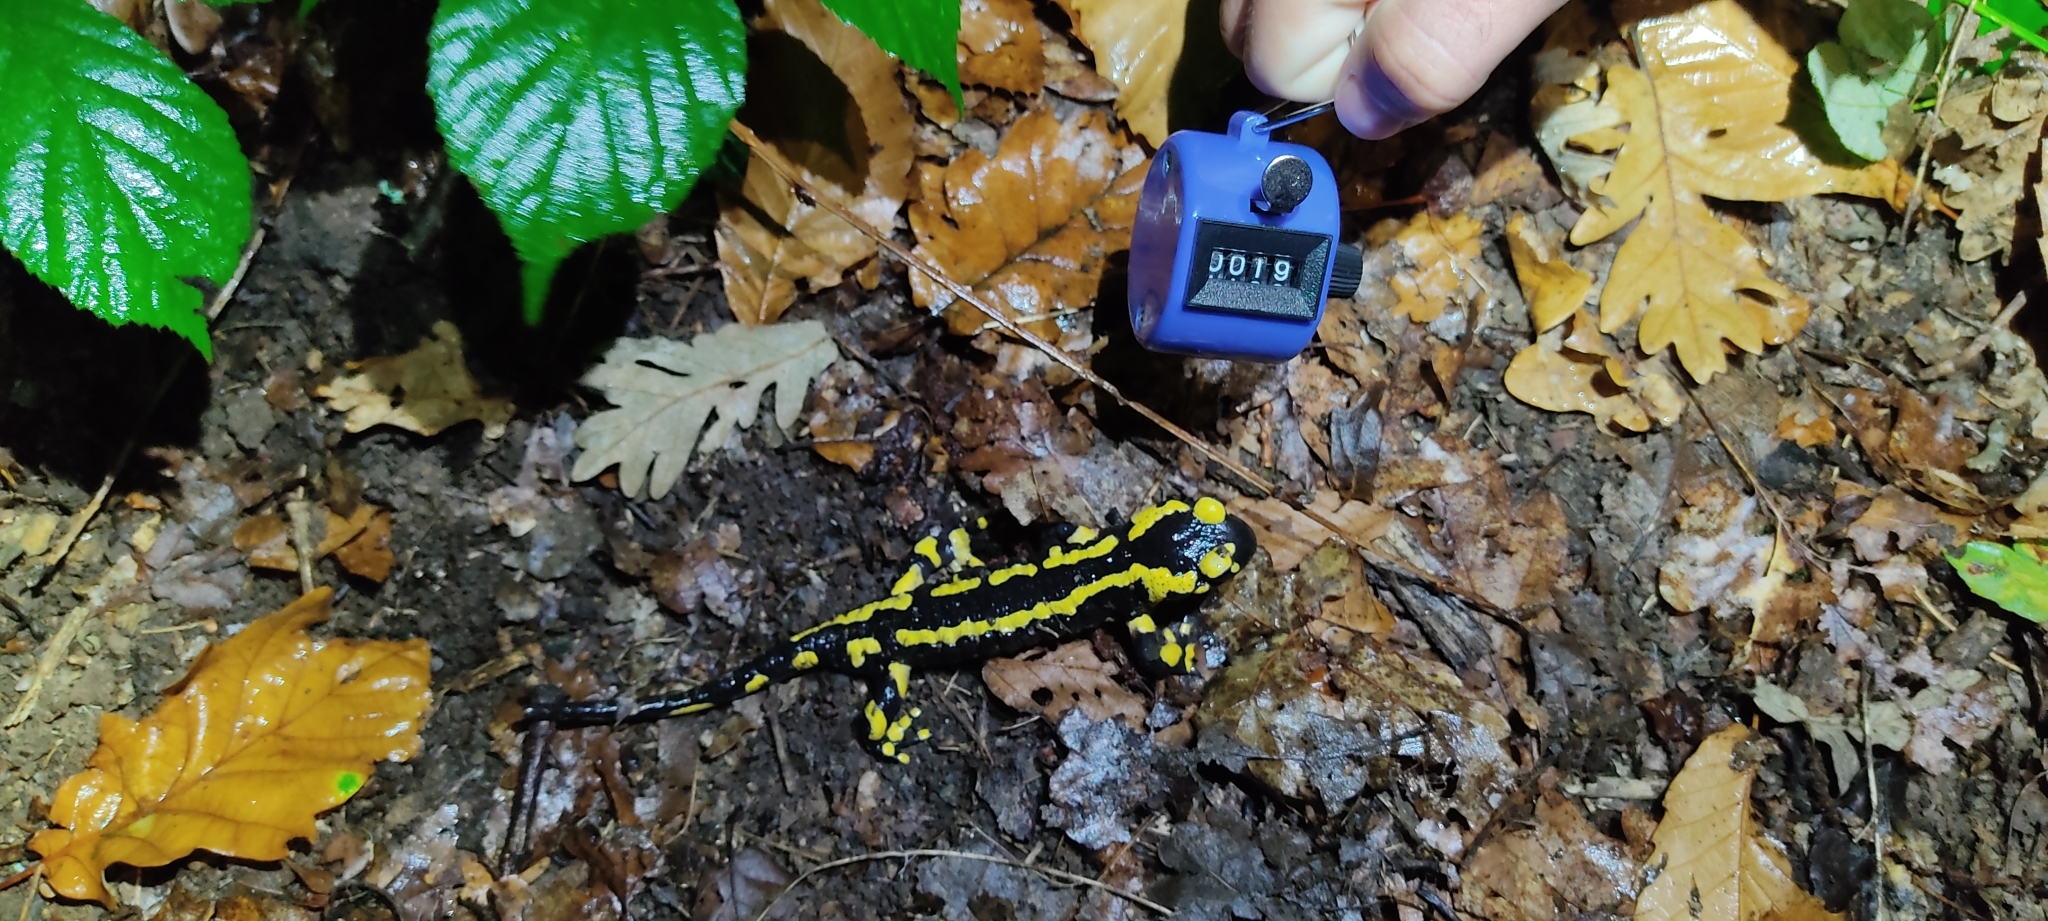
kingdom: Animalia
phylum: Chordata
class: Amphibia
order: Caudata
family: Salamandridae
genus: Salamandra
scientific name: Salamandra salamandra
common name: Fire salamander
